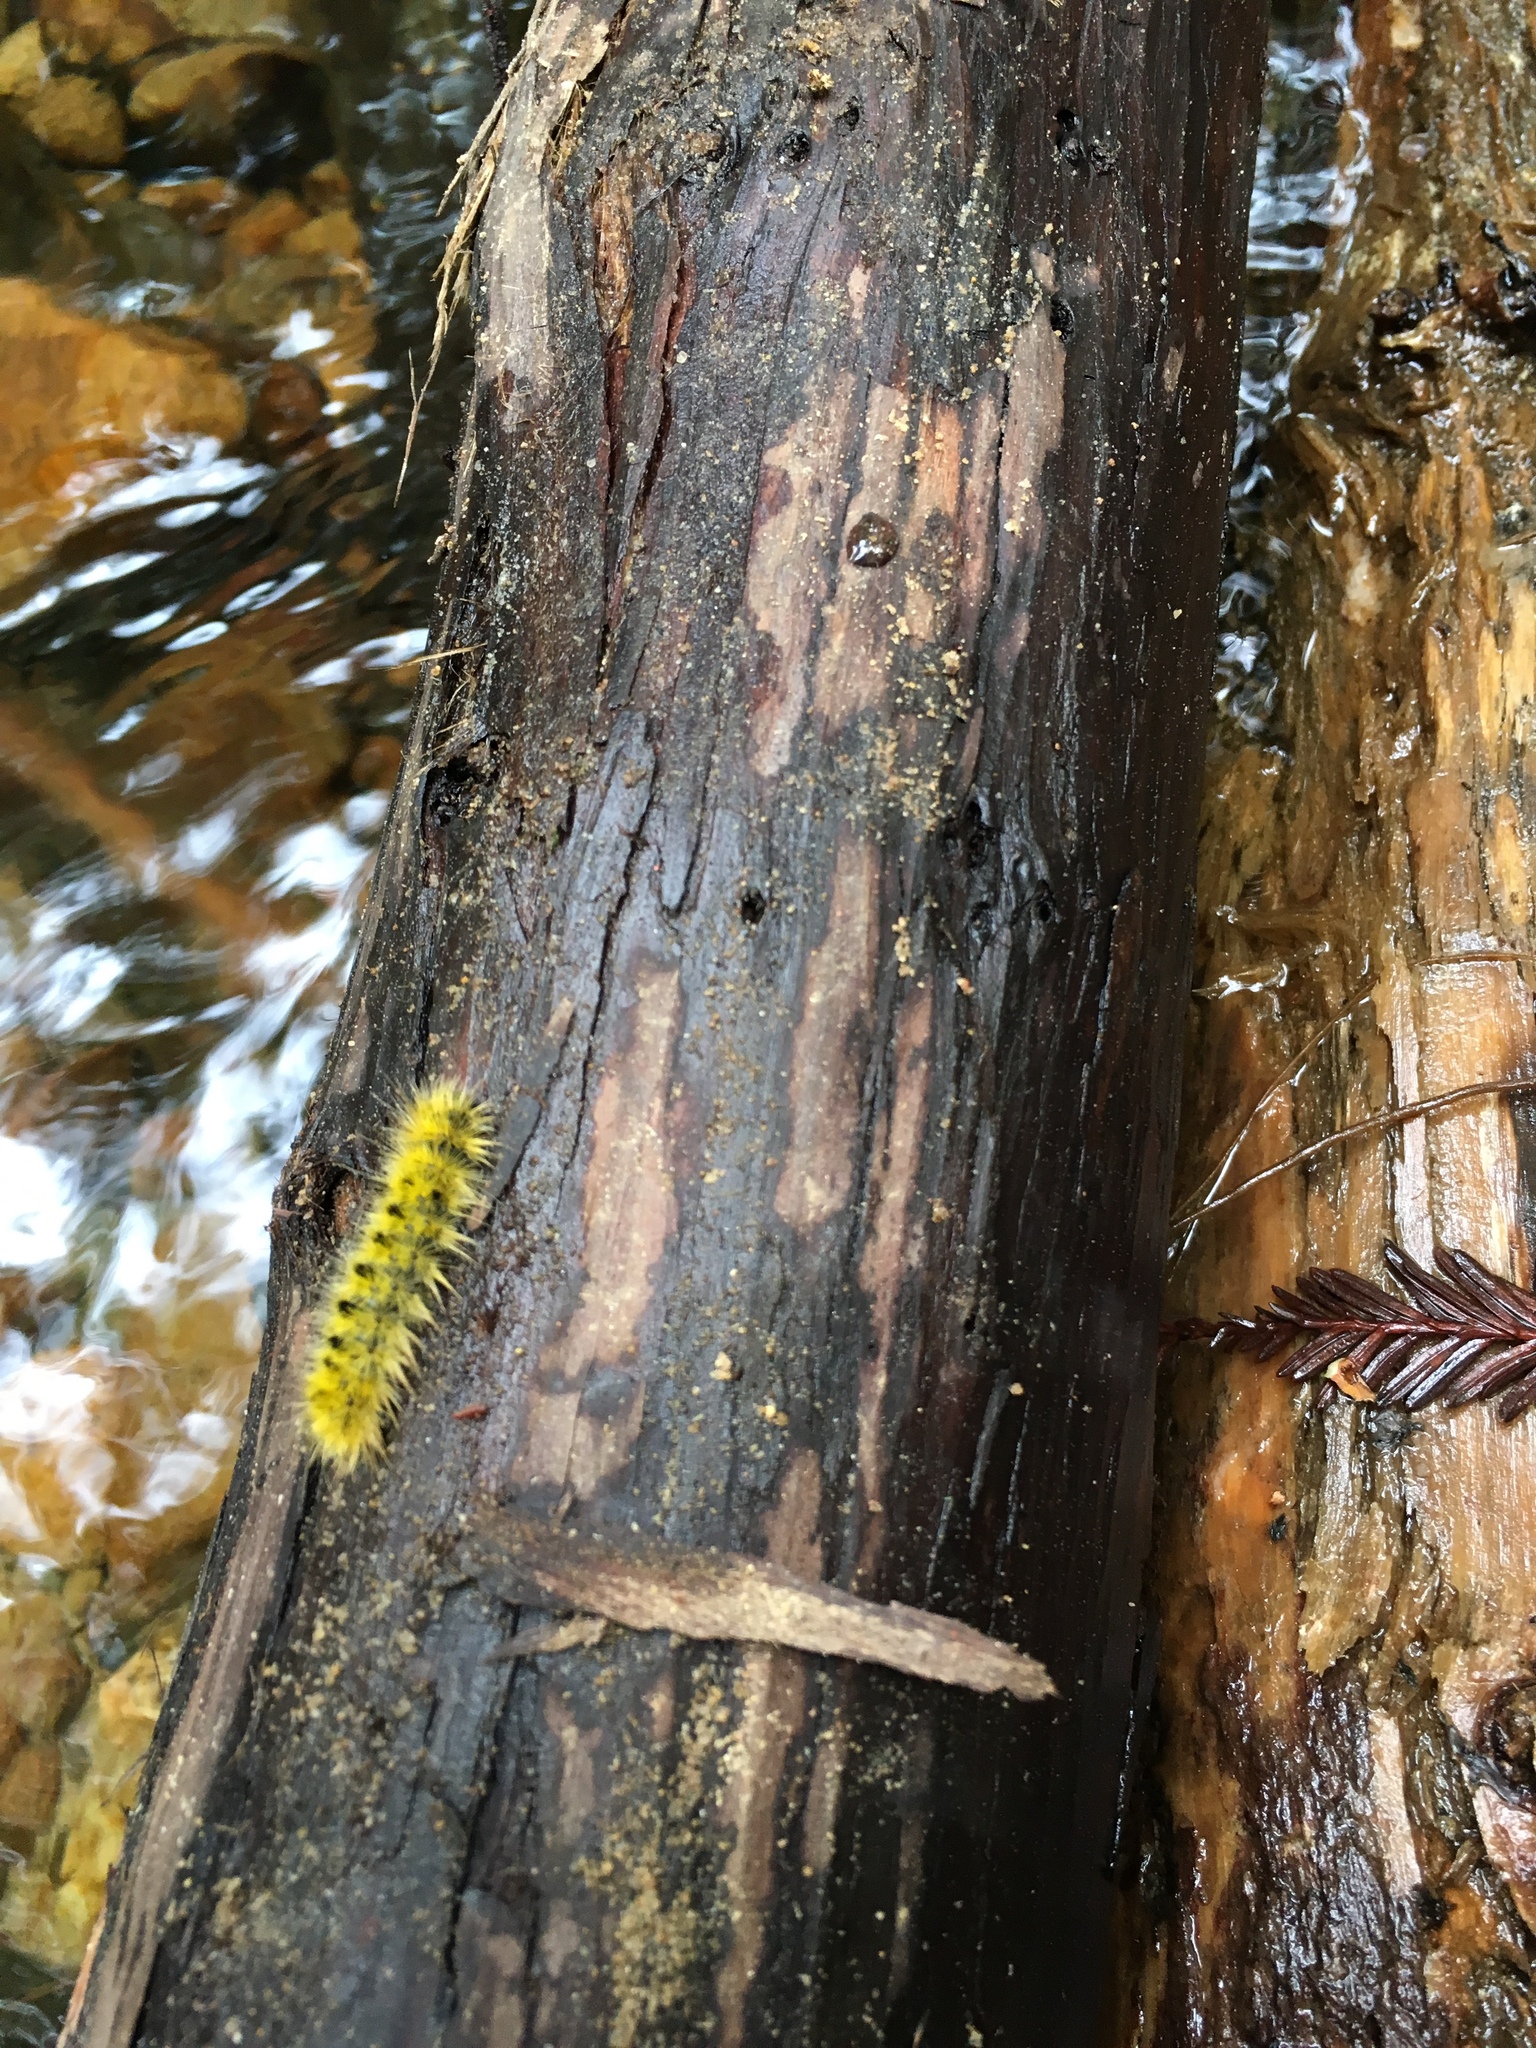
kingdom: Animalia
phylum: Arthropoda
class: Insecta
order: Lepidoptera
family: Erebidae
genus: Lophocampa
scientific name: Lophocampa argentata
